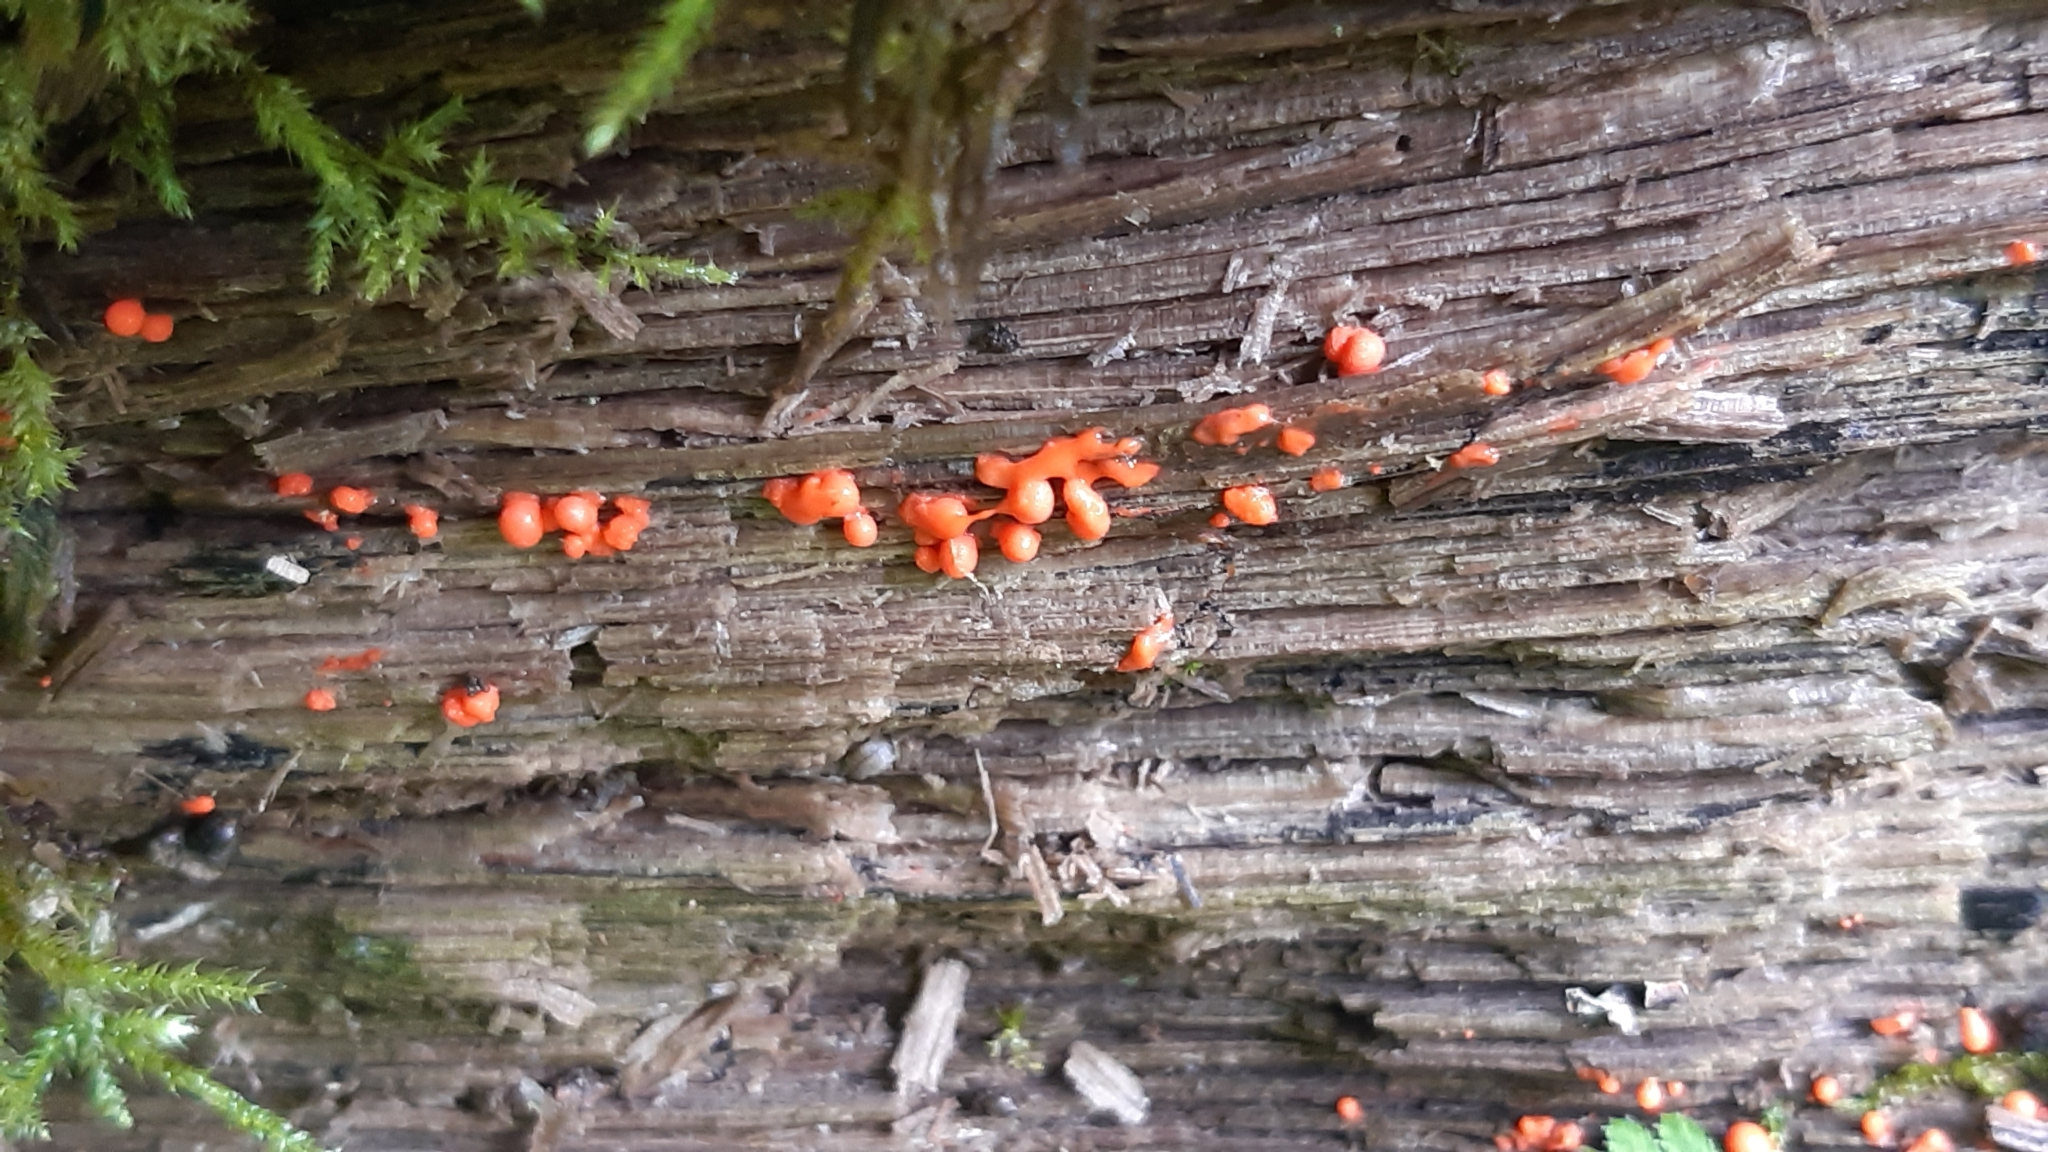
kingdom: Fungi
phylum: Basidiomycota
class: Dacrymycetes
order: Dacrymycetales
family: Dacrymycetaceae
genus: Dacrymyces
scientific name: Dacrymyces stillatus
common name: Common jelly spot
